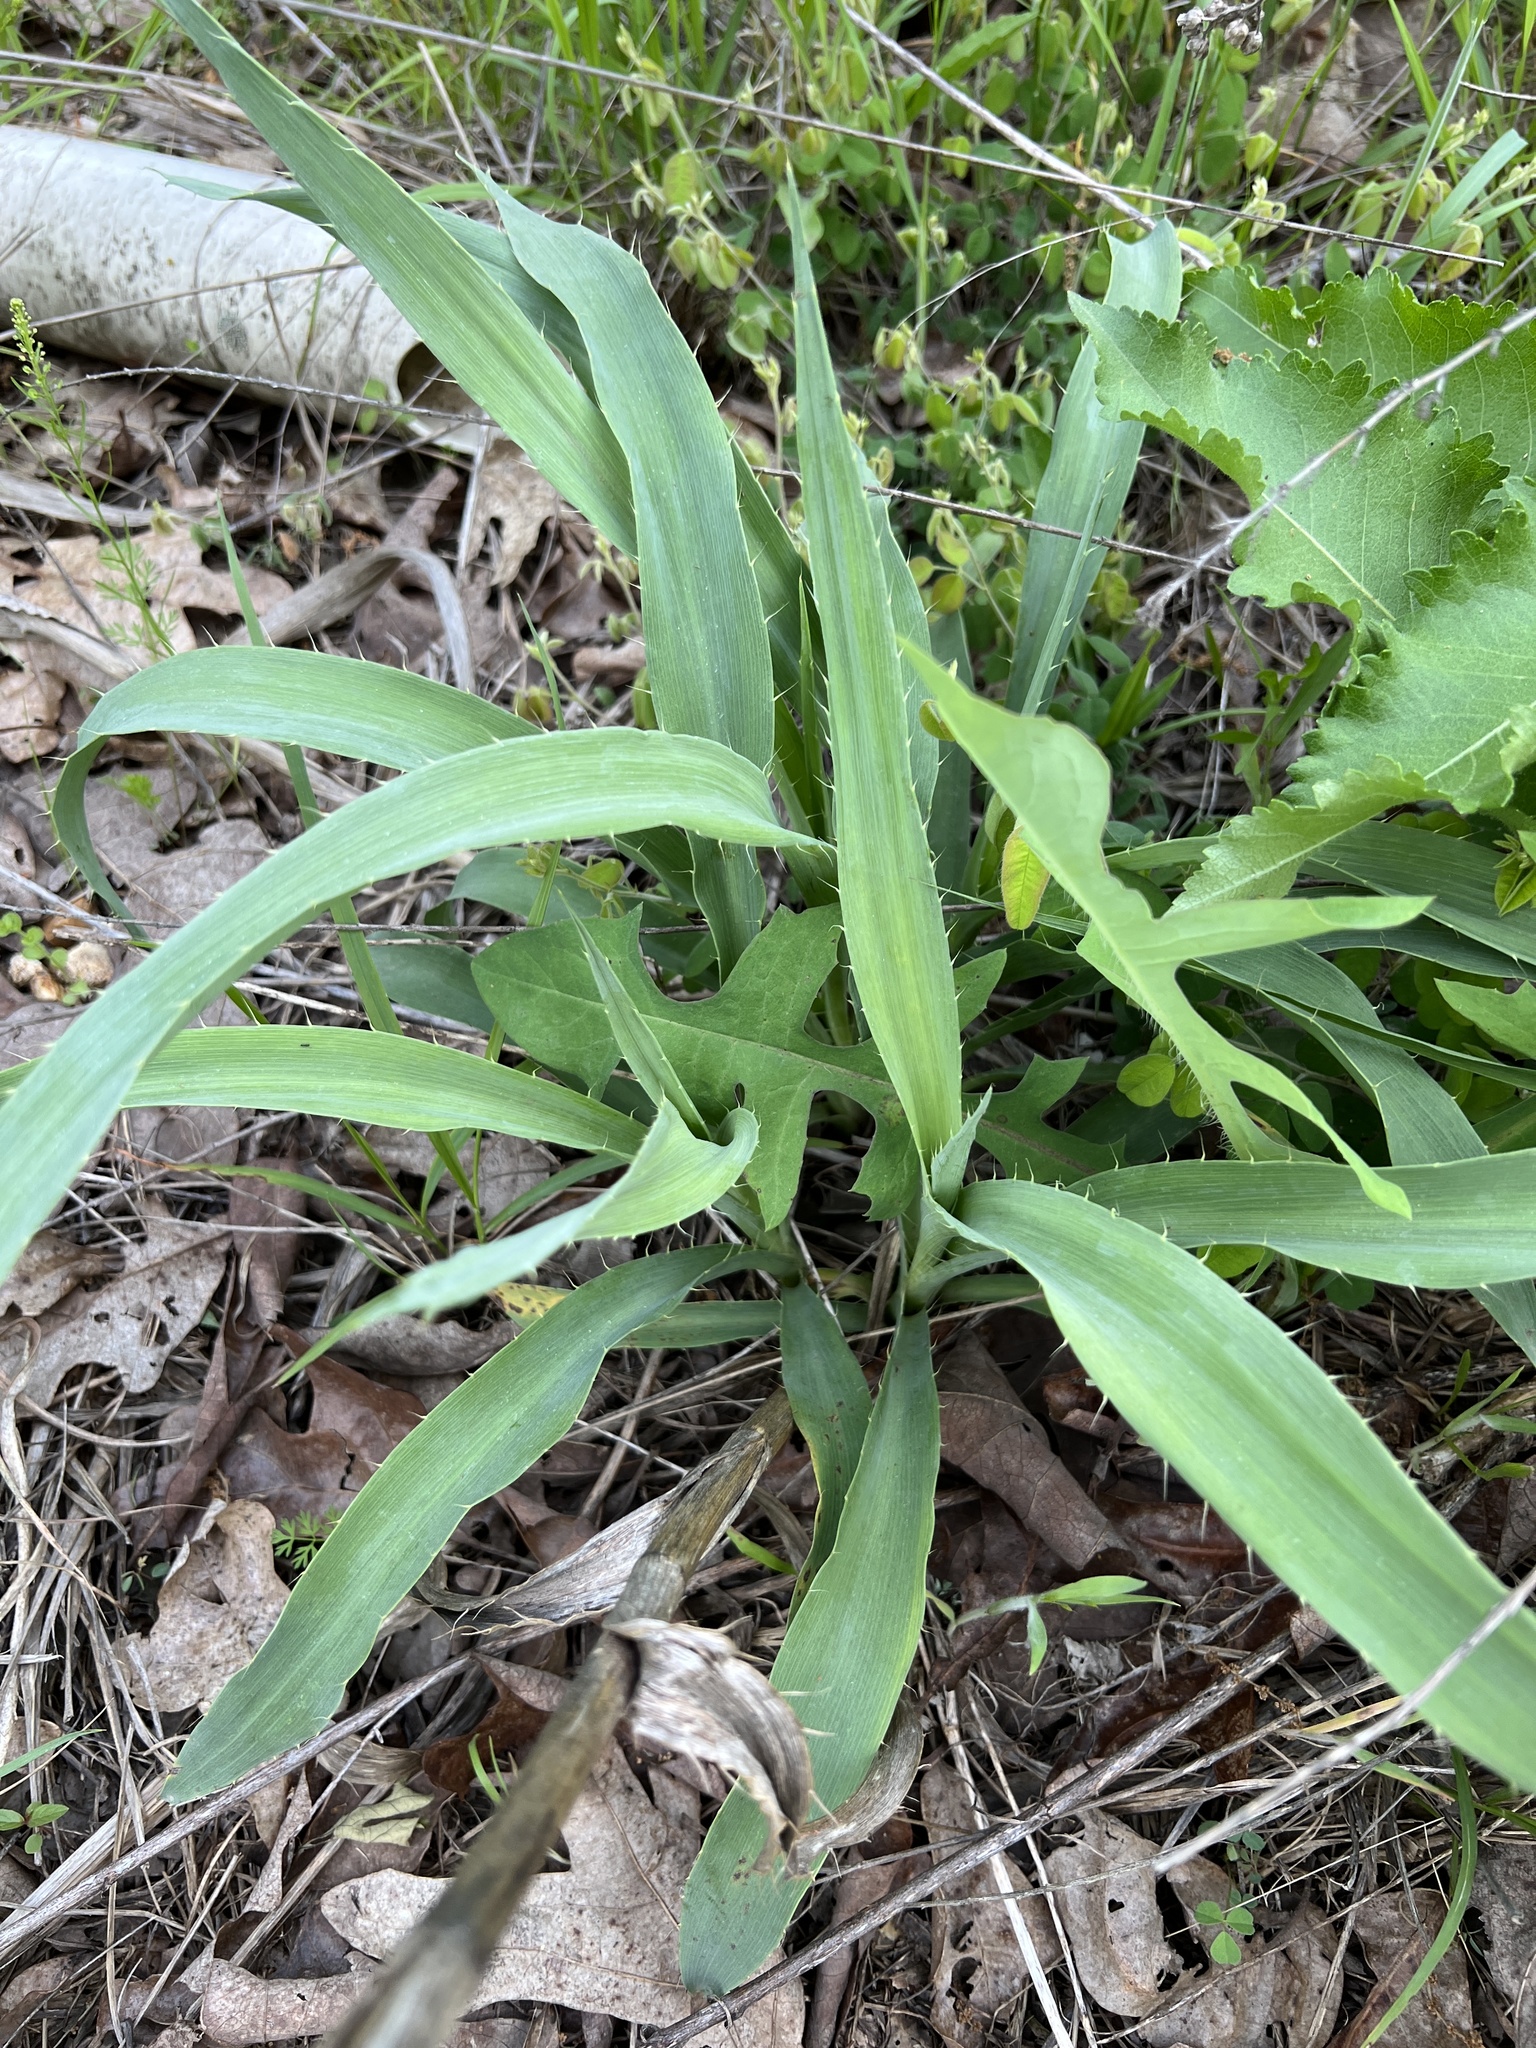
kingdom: Plantae
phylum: Tracheophyta
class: Magnoliopsida
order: Apiales
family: Apiaceae
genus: Eryngium
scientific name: Eryngium yuccifolium
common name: Button eryngo
